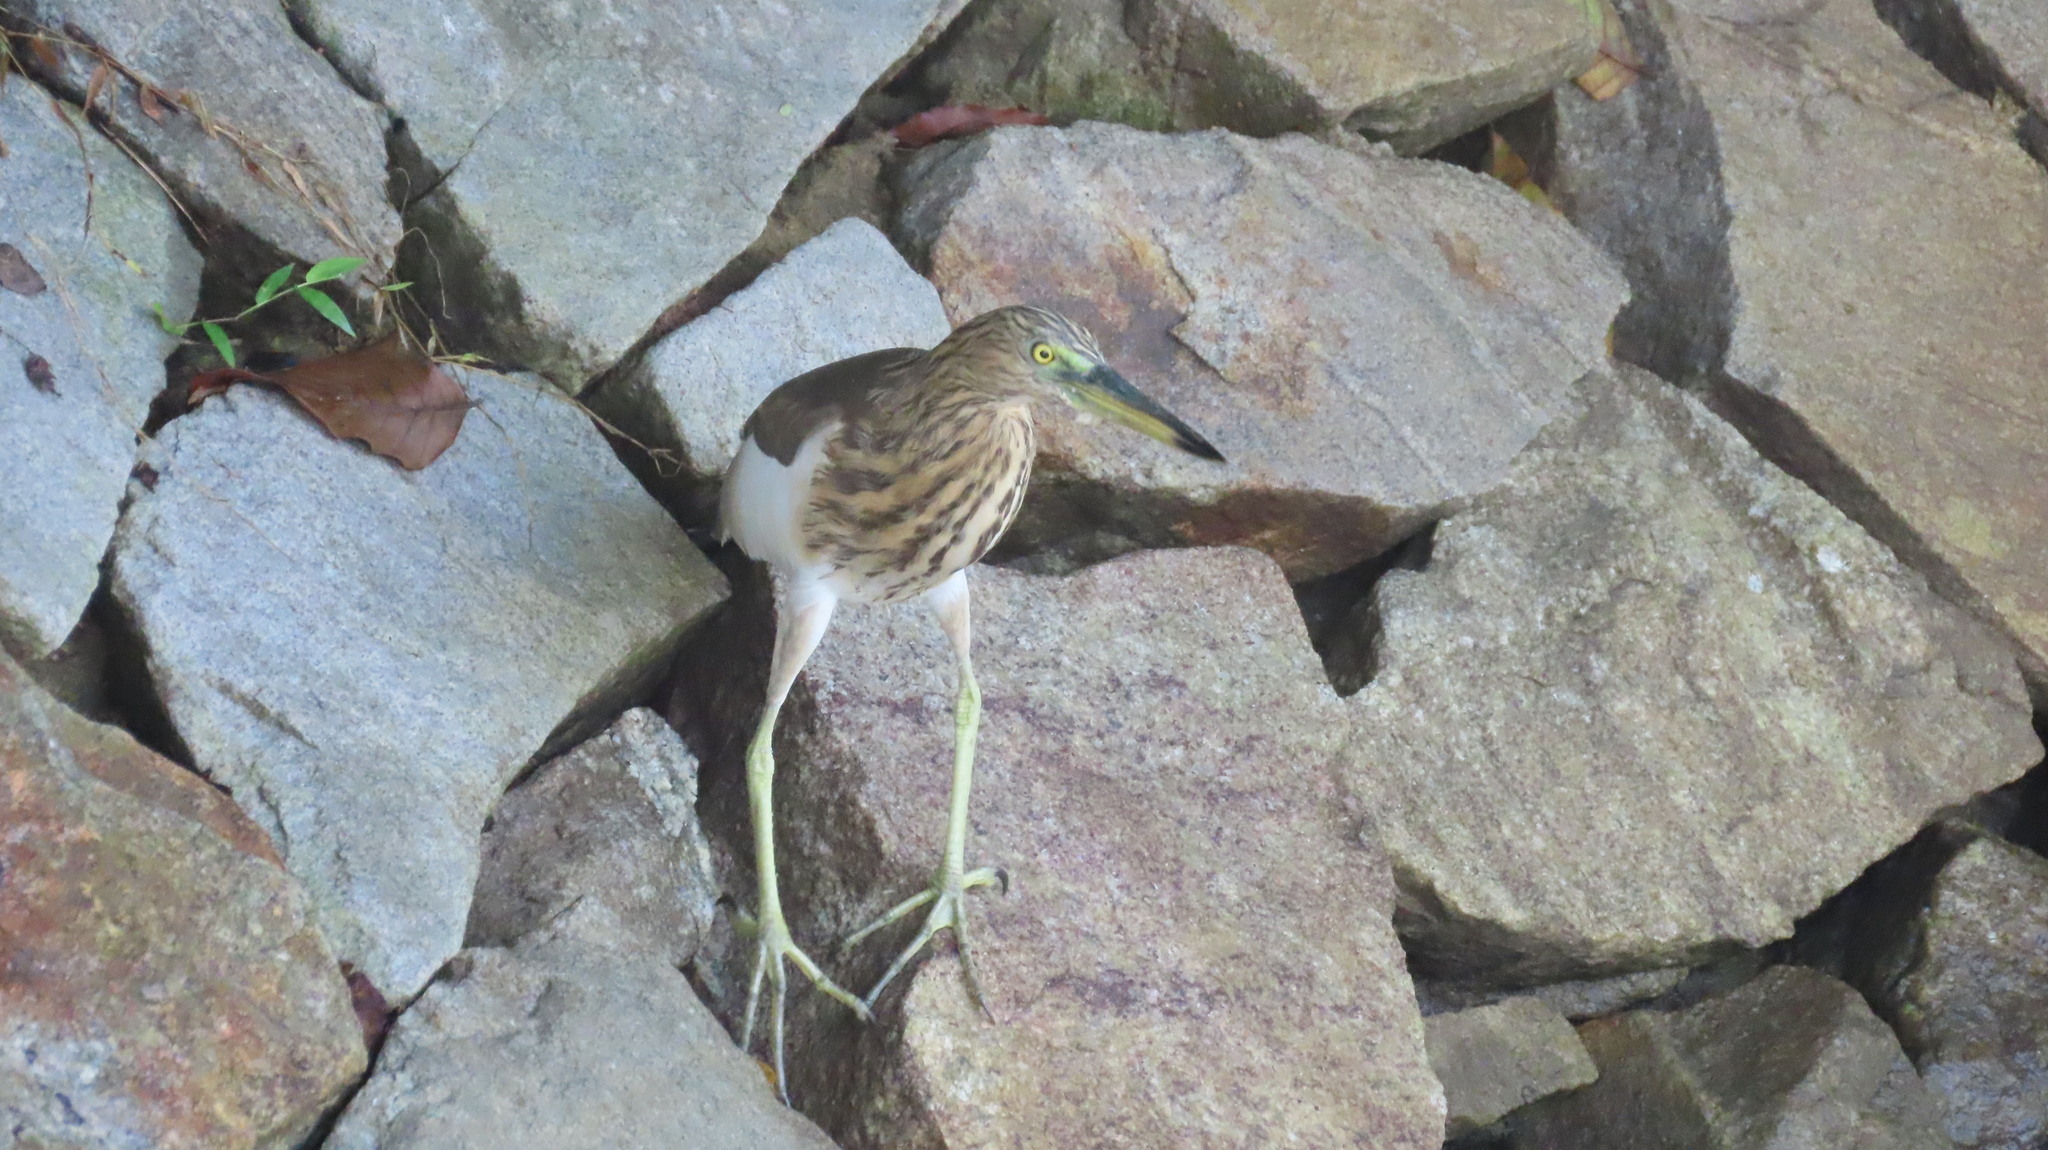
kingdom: Animalia
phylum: Chordata
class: Aves
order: Pelecaniformes
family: Ardeidae
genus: Ardeola
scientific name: Ardeola grayii
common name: Indian pond heron
